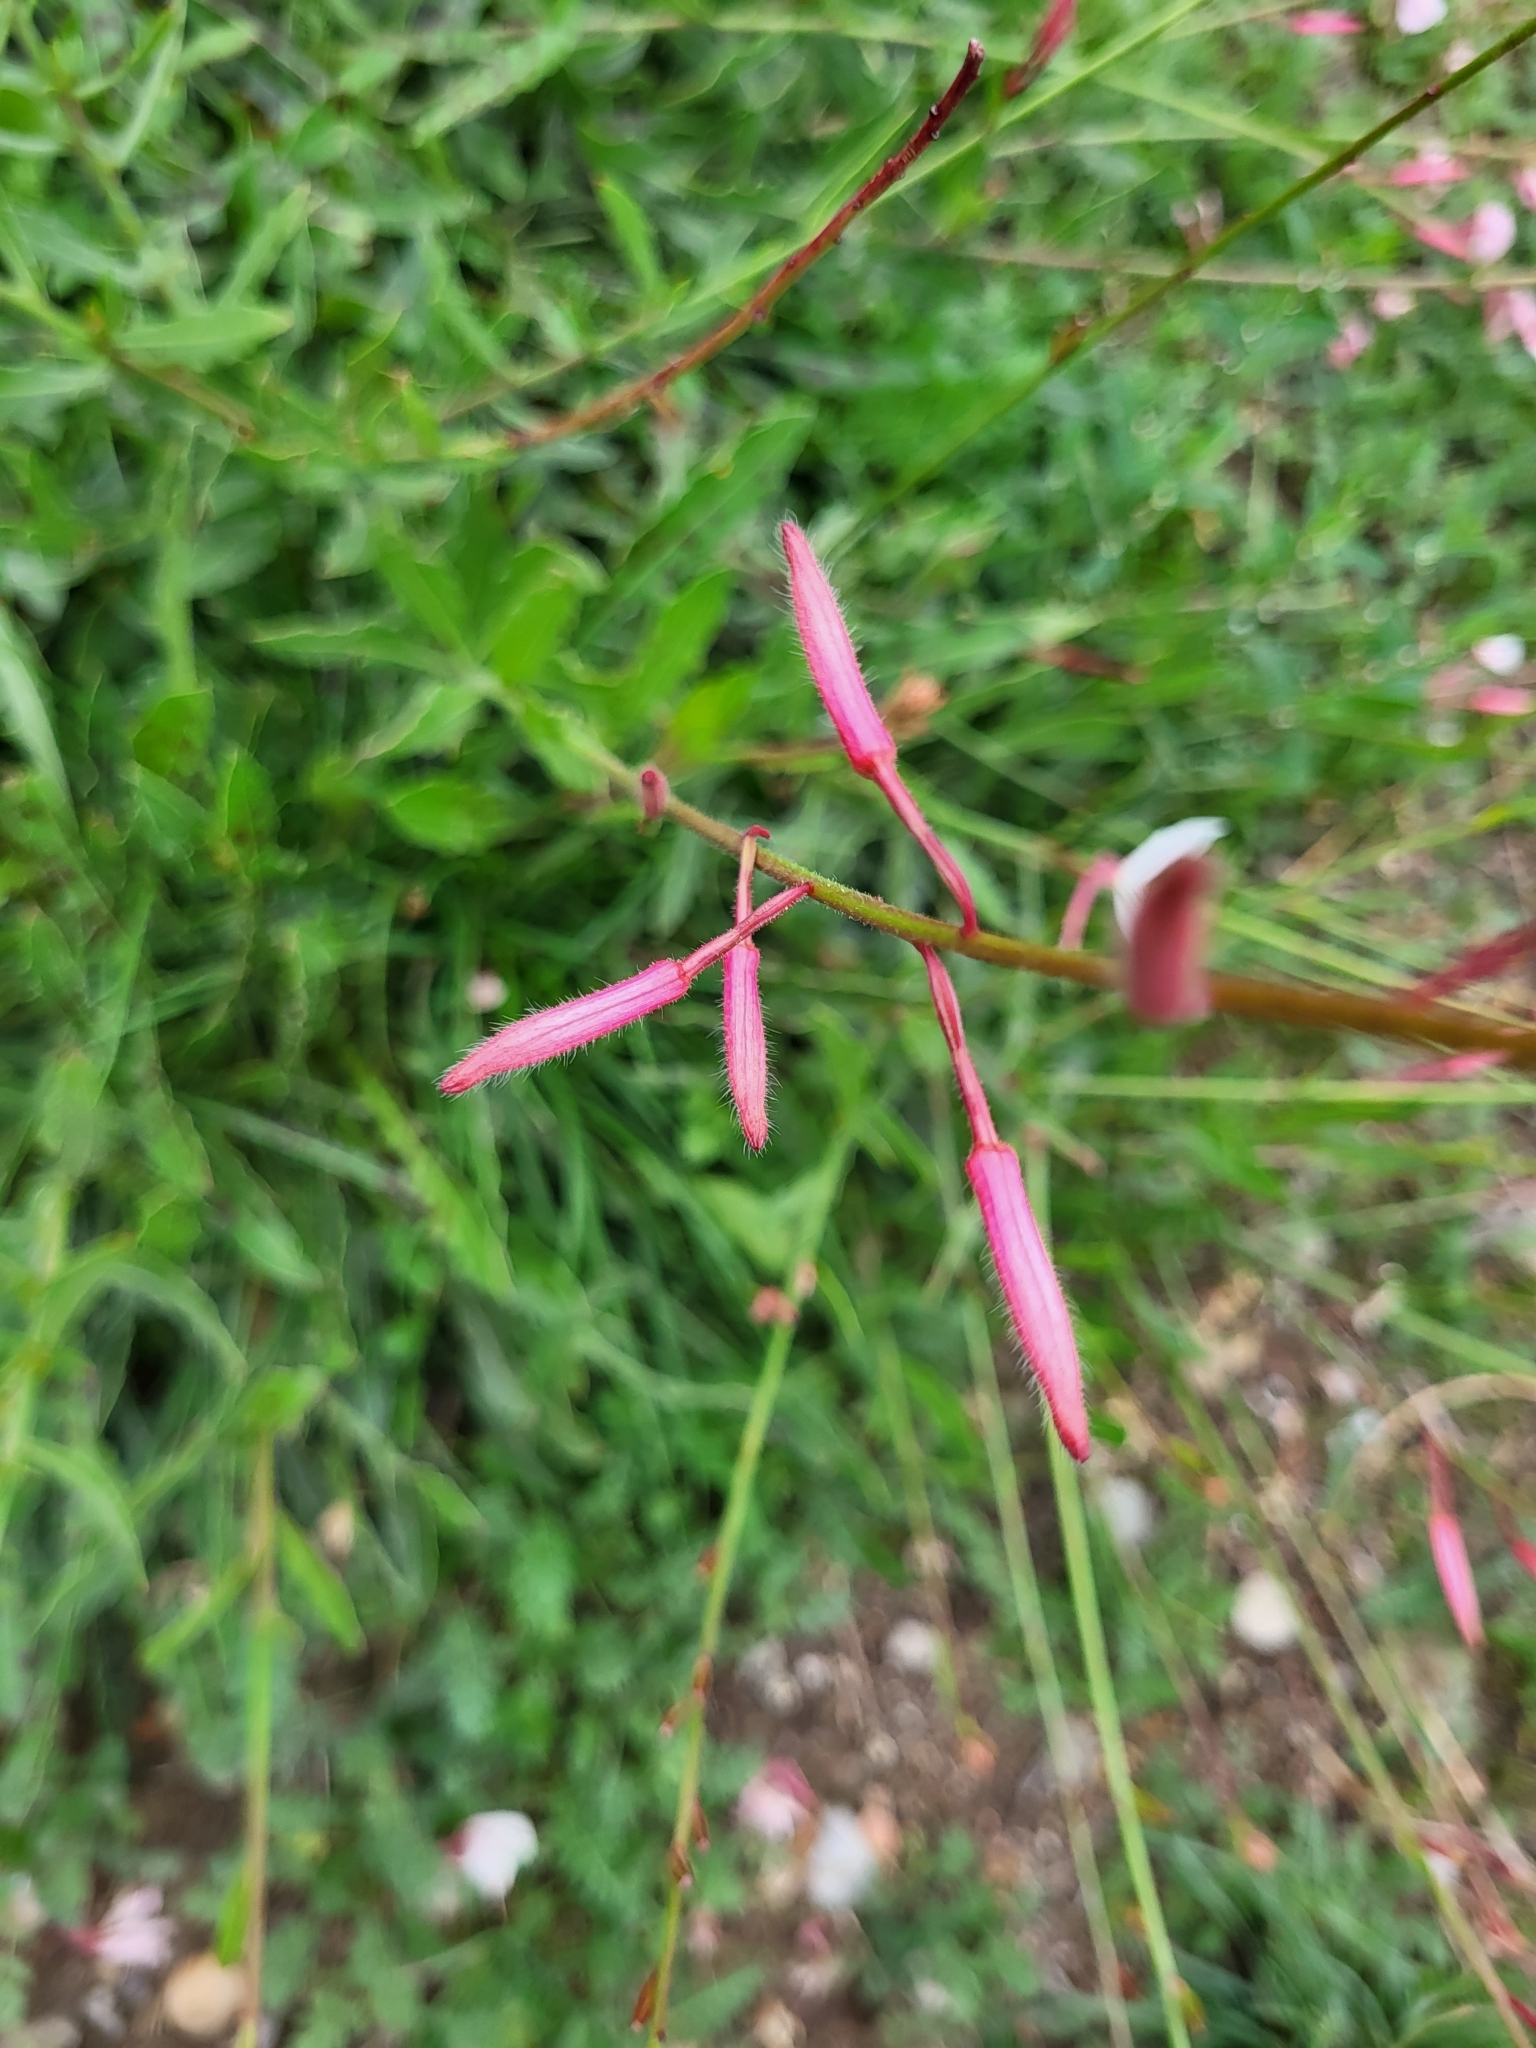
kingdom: Plantae
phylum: Tracheophyta
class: Magnoliopsida
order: Myrtales
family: Onagraceae
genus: Oenothera
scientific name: Oenothera lindheimeri
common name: Lindheimer's beeblossom
